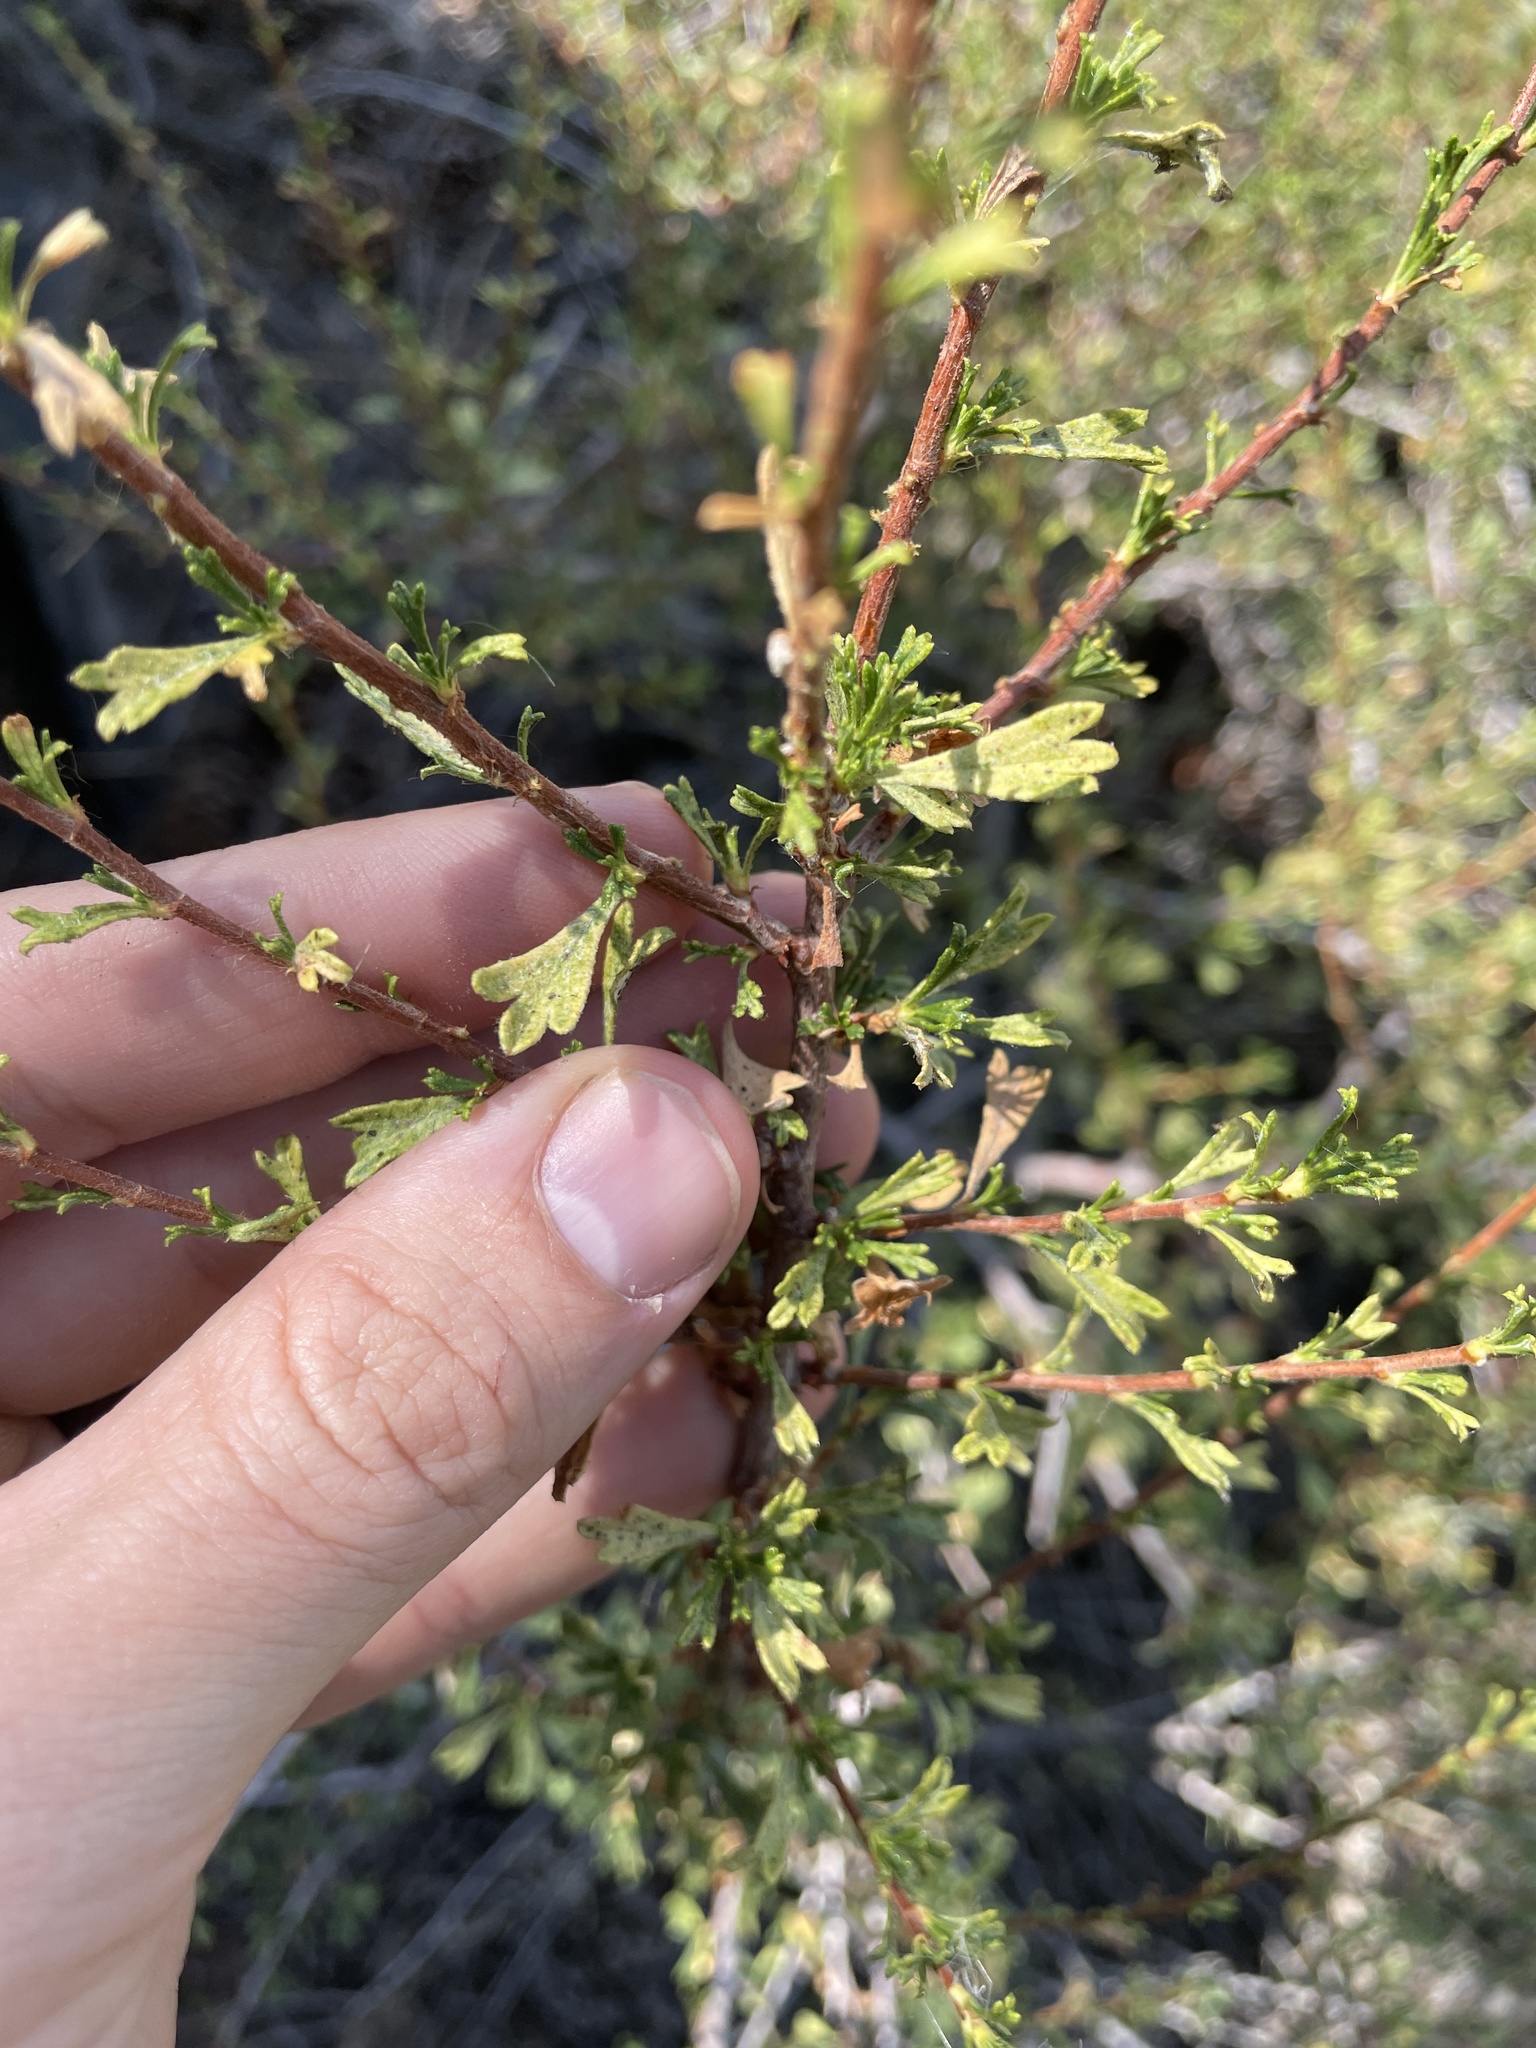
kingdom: Plantae
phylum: Tracheophyta
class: Magnoliopsida
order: Rosales
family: Rosaceae
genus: Purshia
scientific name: Purshia tridentata
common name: Antelope bitterbrush
